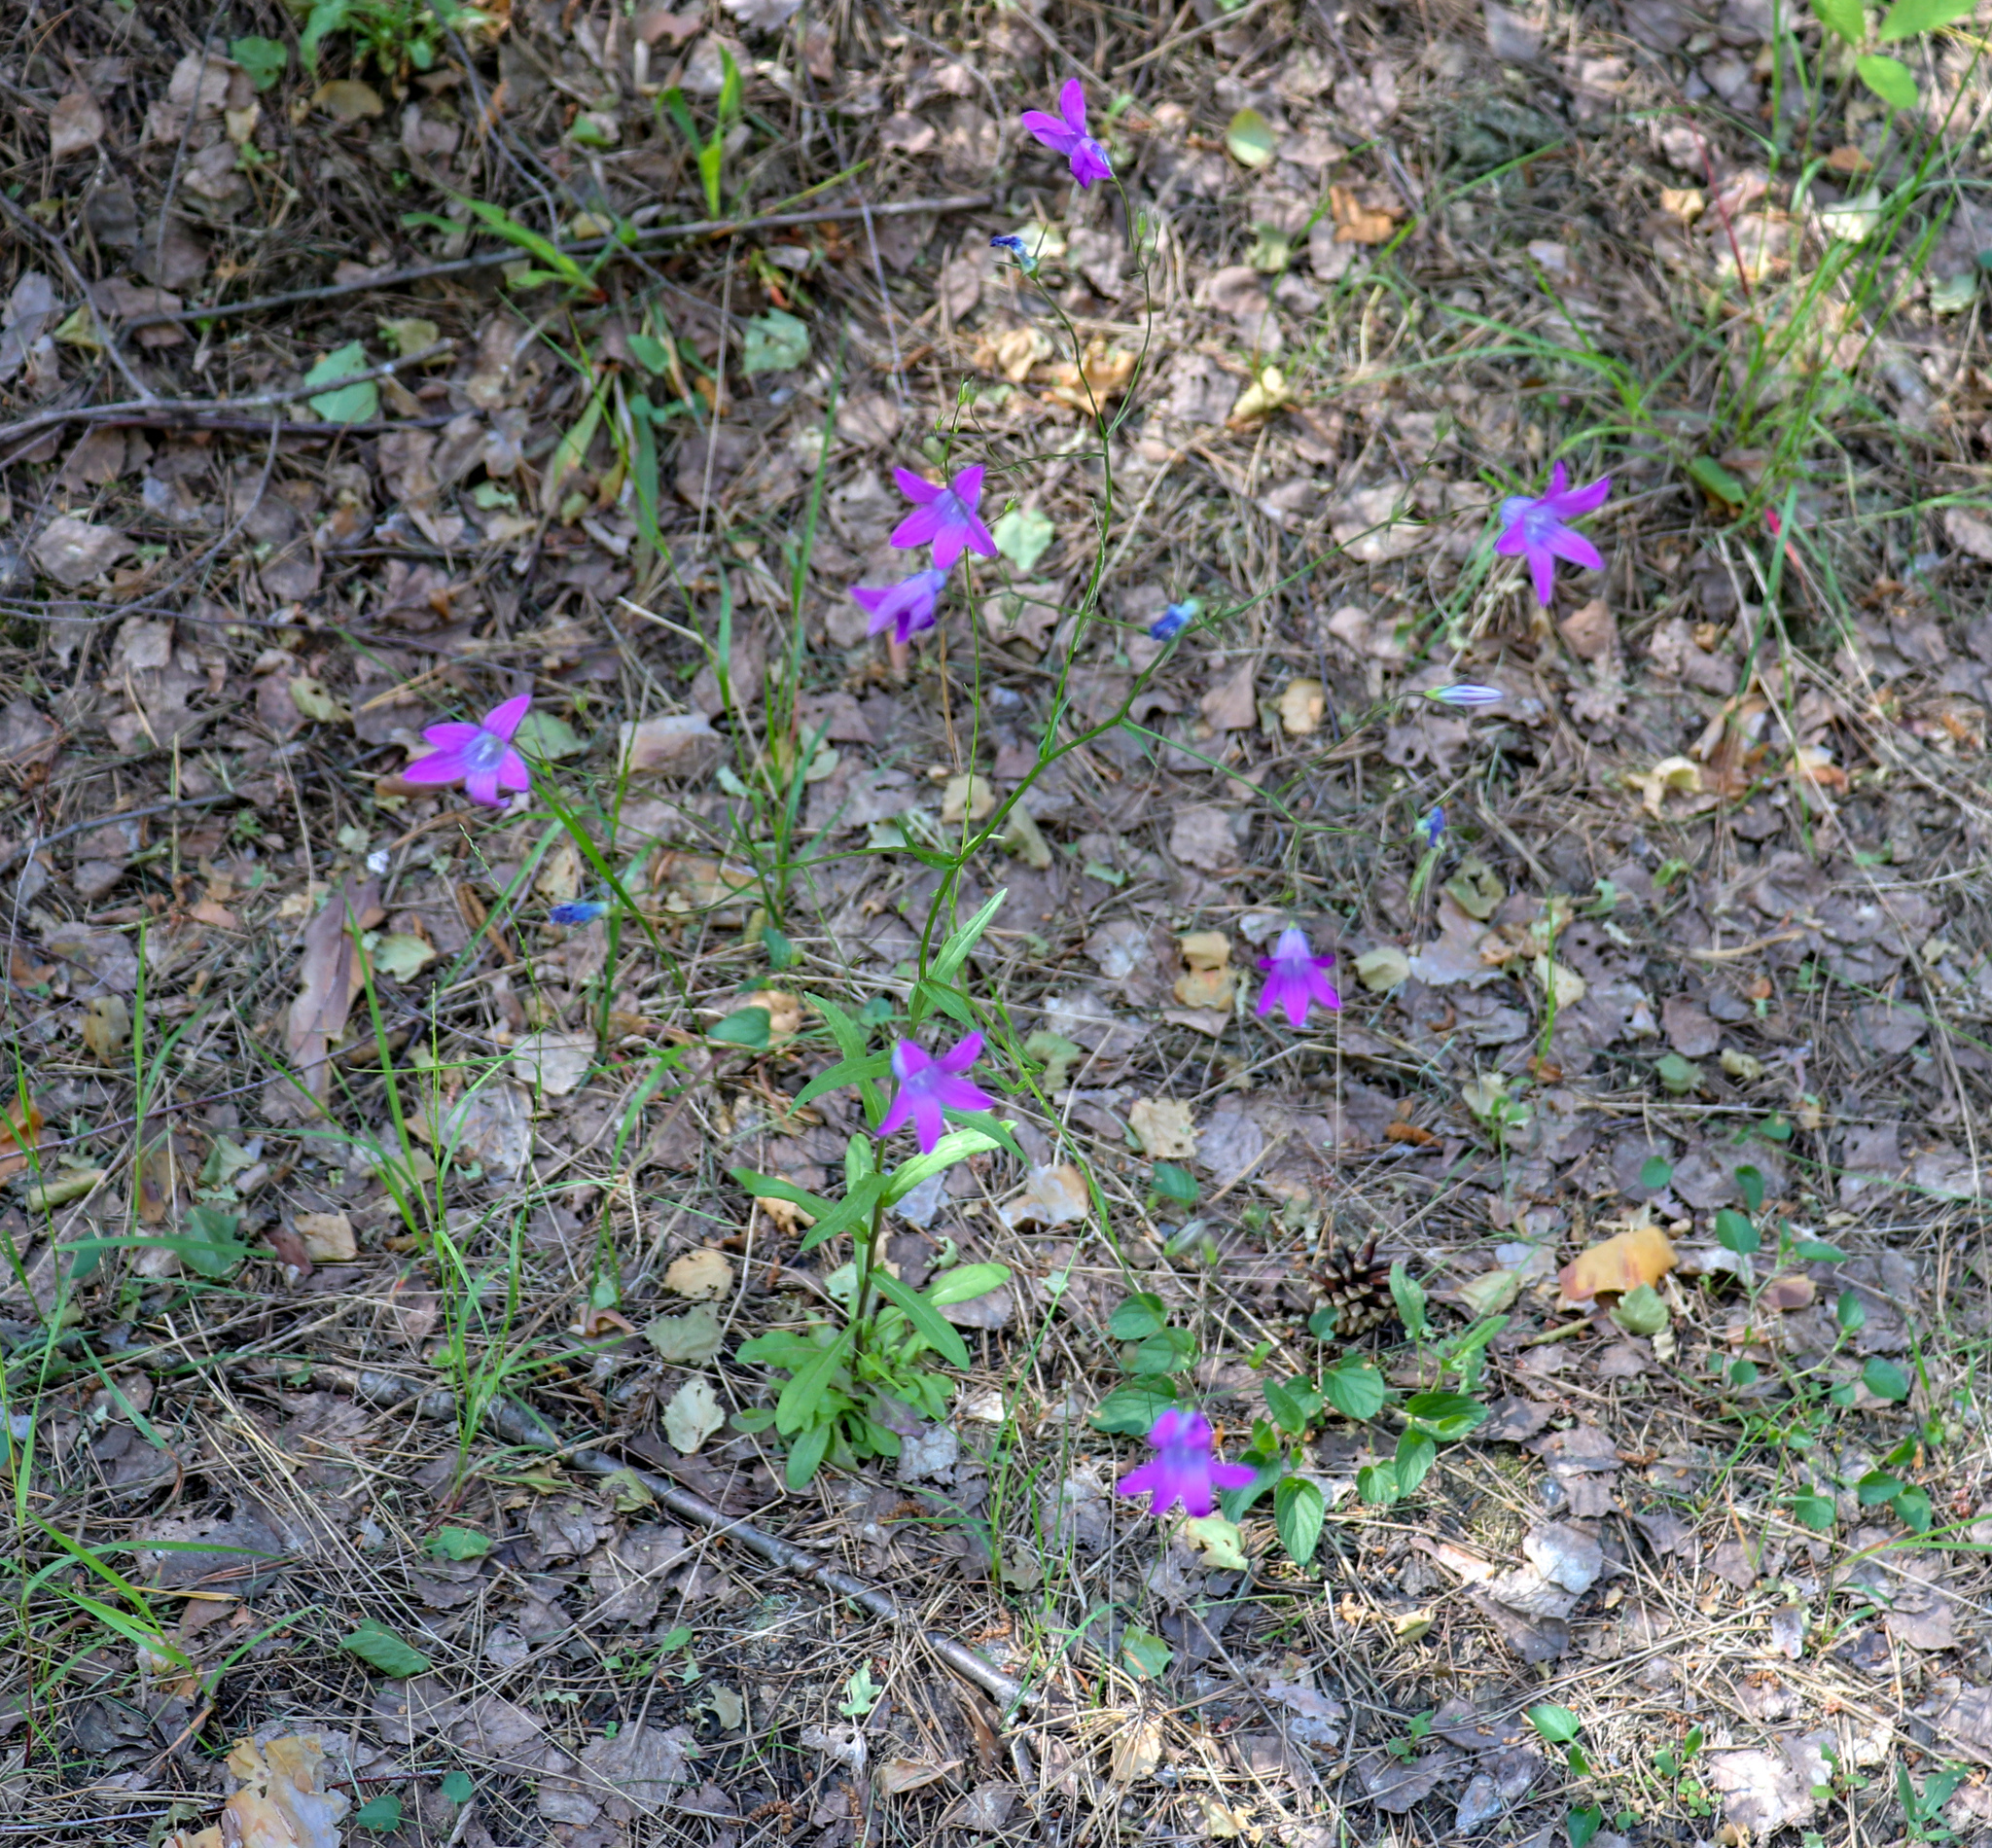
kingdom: Plantae
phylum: Tracheophyta
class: Magnoliopsida
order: Asterales
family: Campanulaceae
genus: Campanula
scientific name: Campanula patula
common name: Spreading bellflower
